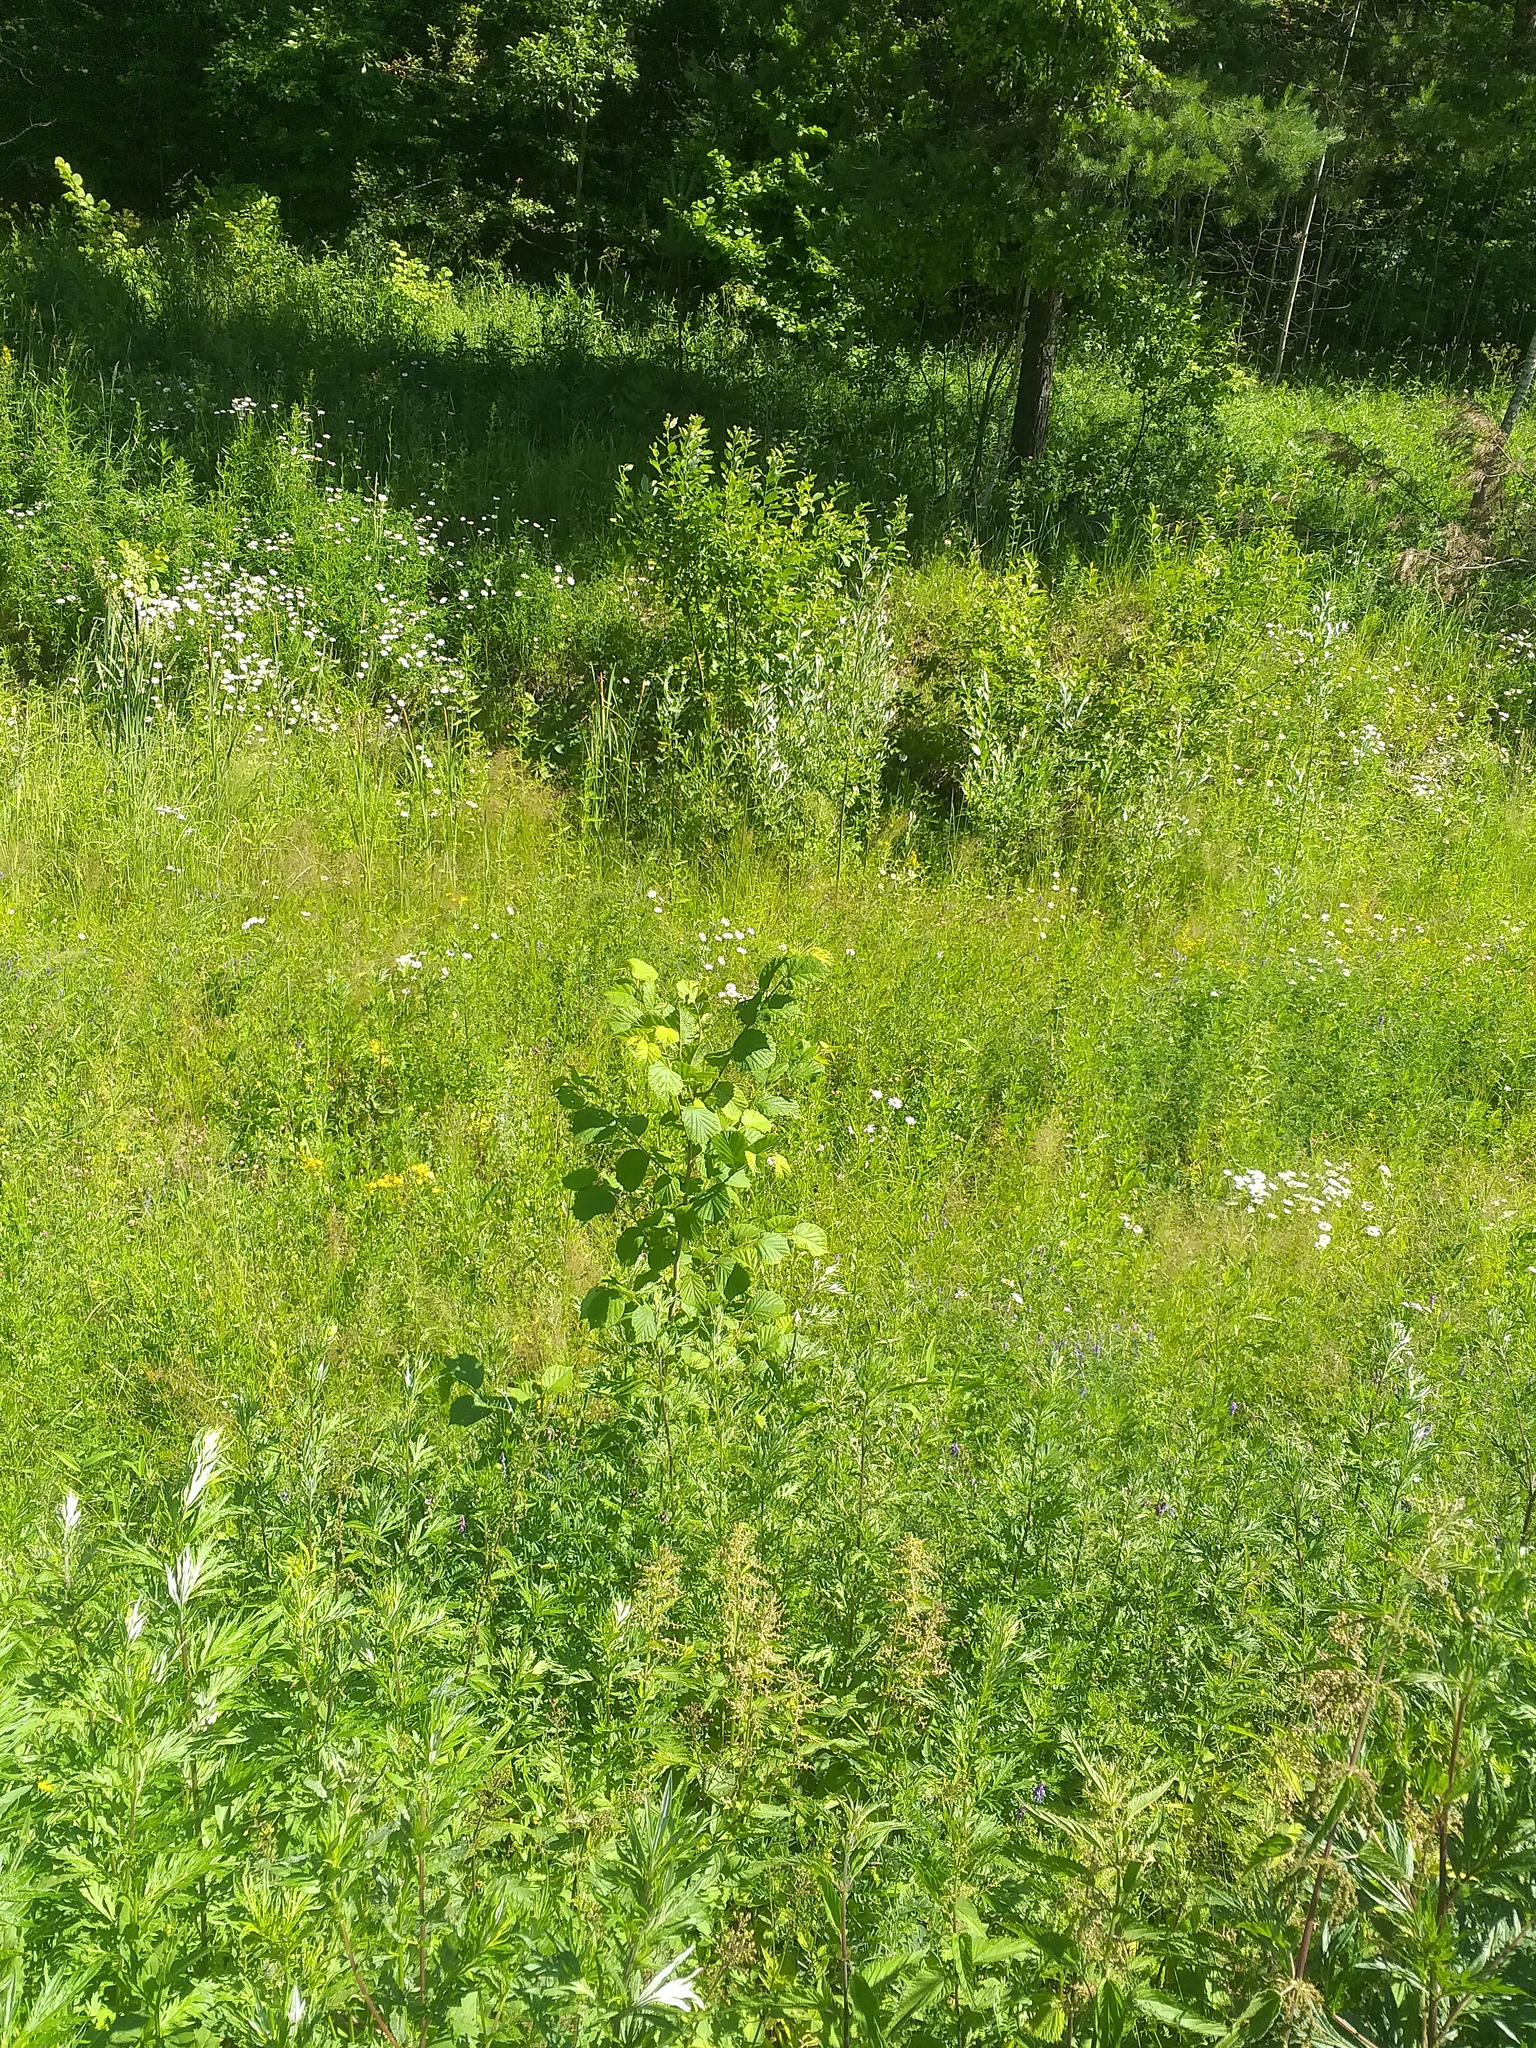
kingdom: Plantae
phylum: Tracheophyta
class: Magnoliopsida
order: Fagales
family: Betulaceae
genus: Corylus
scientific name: Corylus avellana
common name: European hazel
